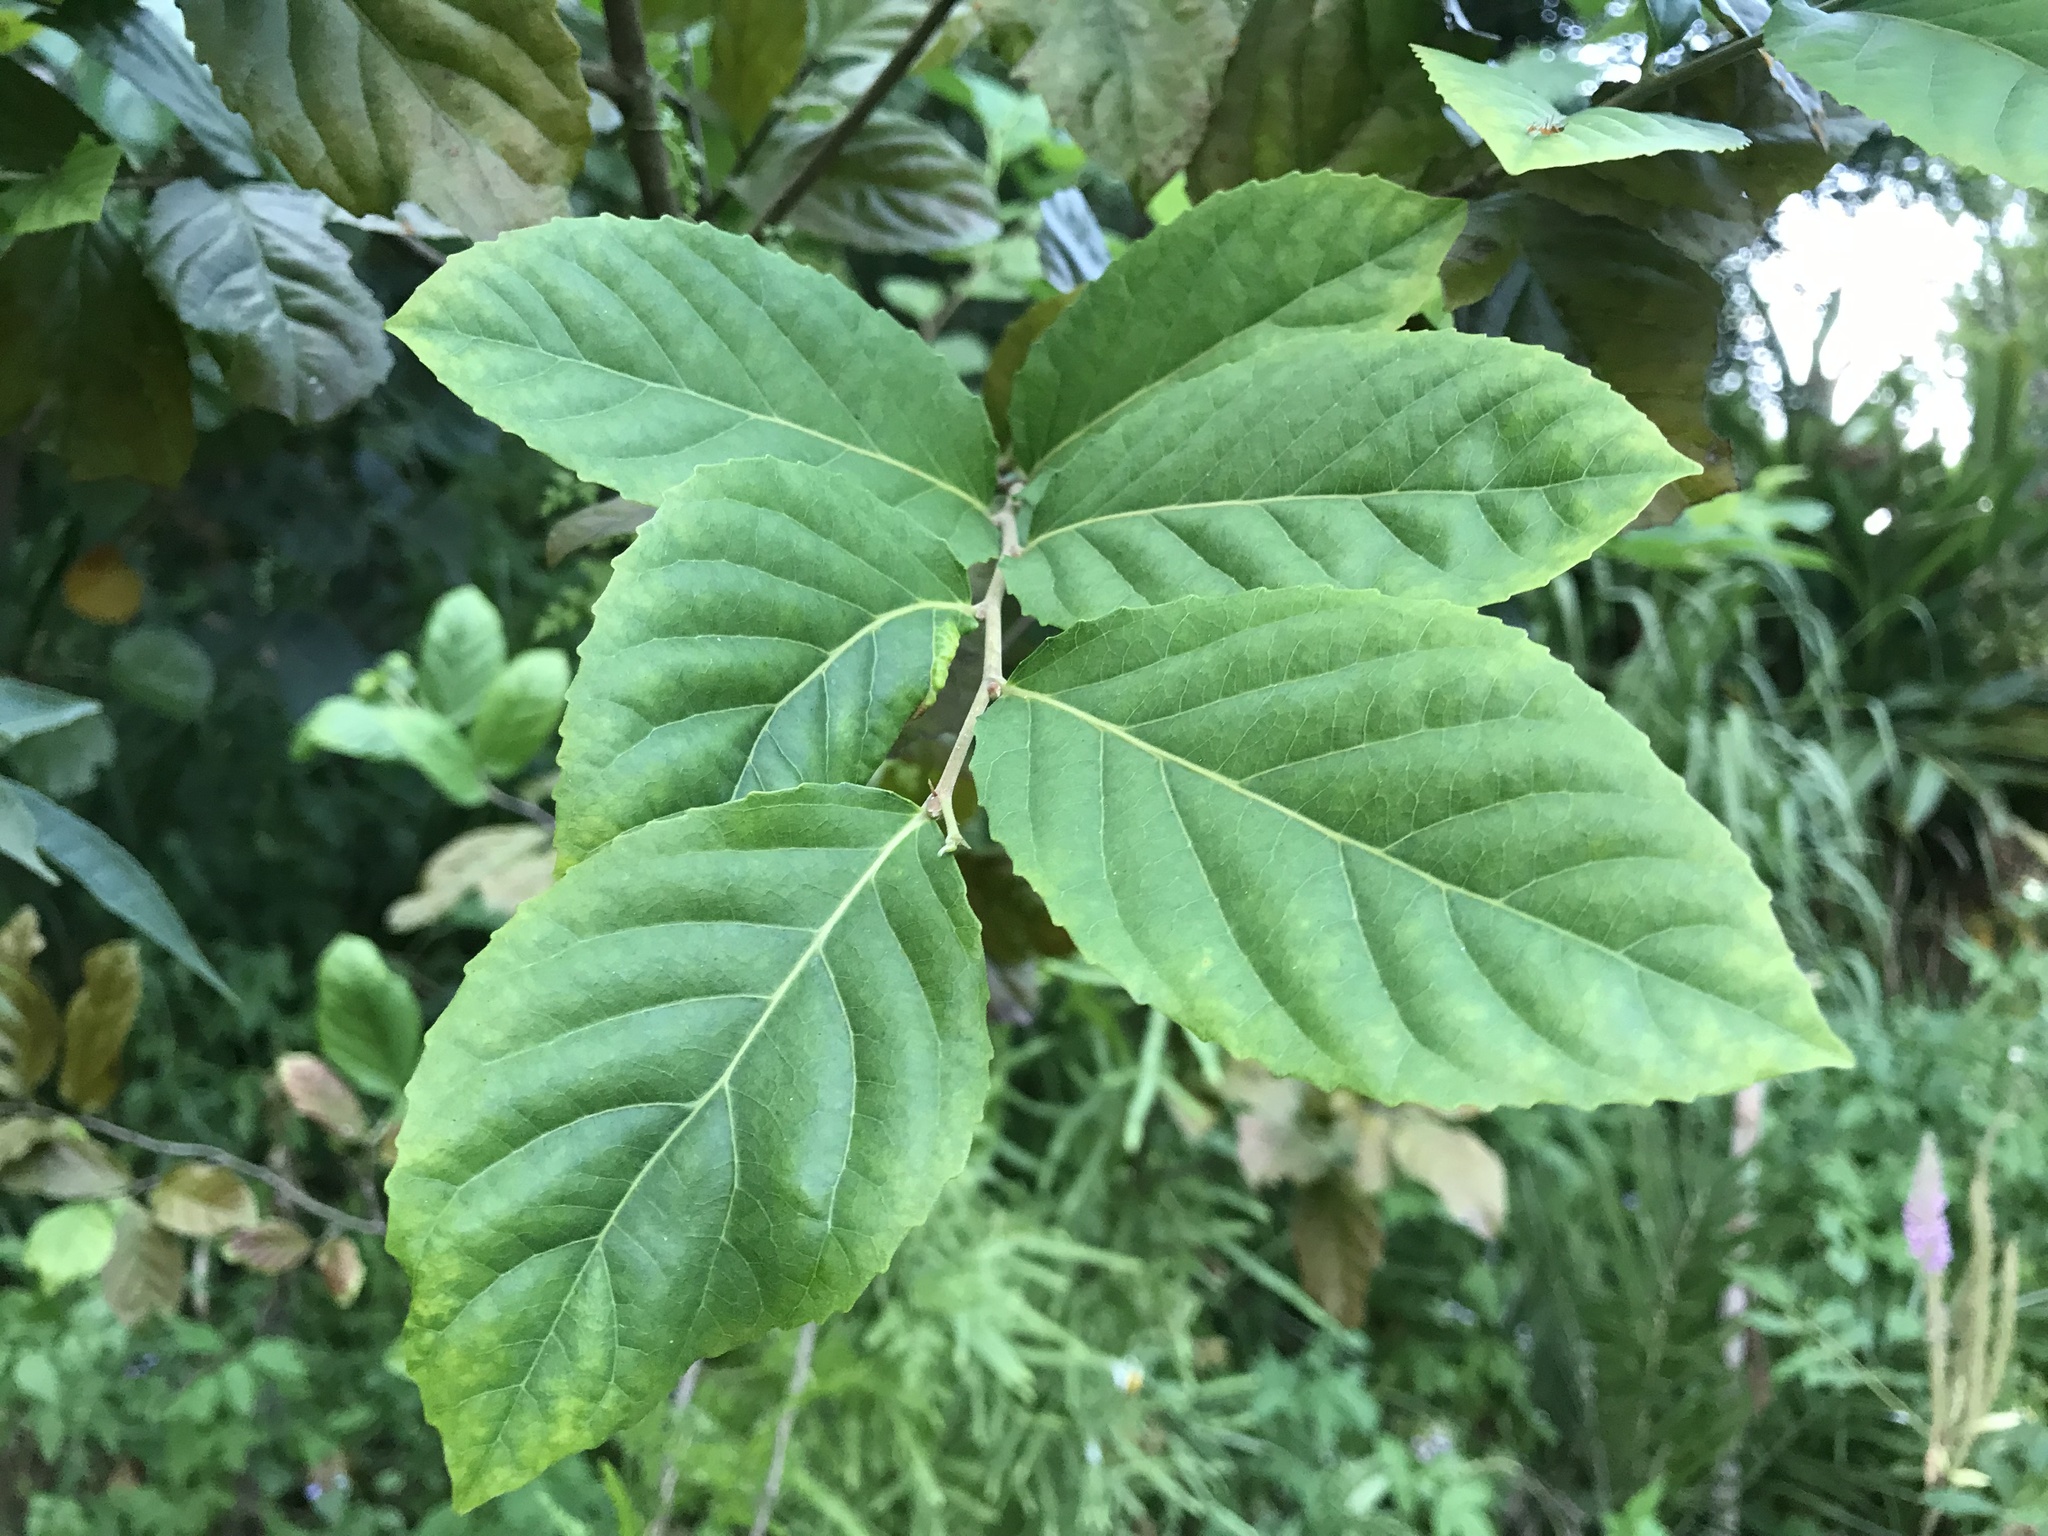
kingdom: Plantae
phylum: Tracheophyta
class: Magnoliopsida
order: Malpighiales
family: Salicaceae
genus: Homalium
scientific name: Homalium cochinchinensis
